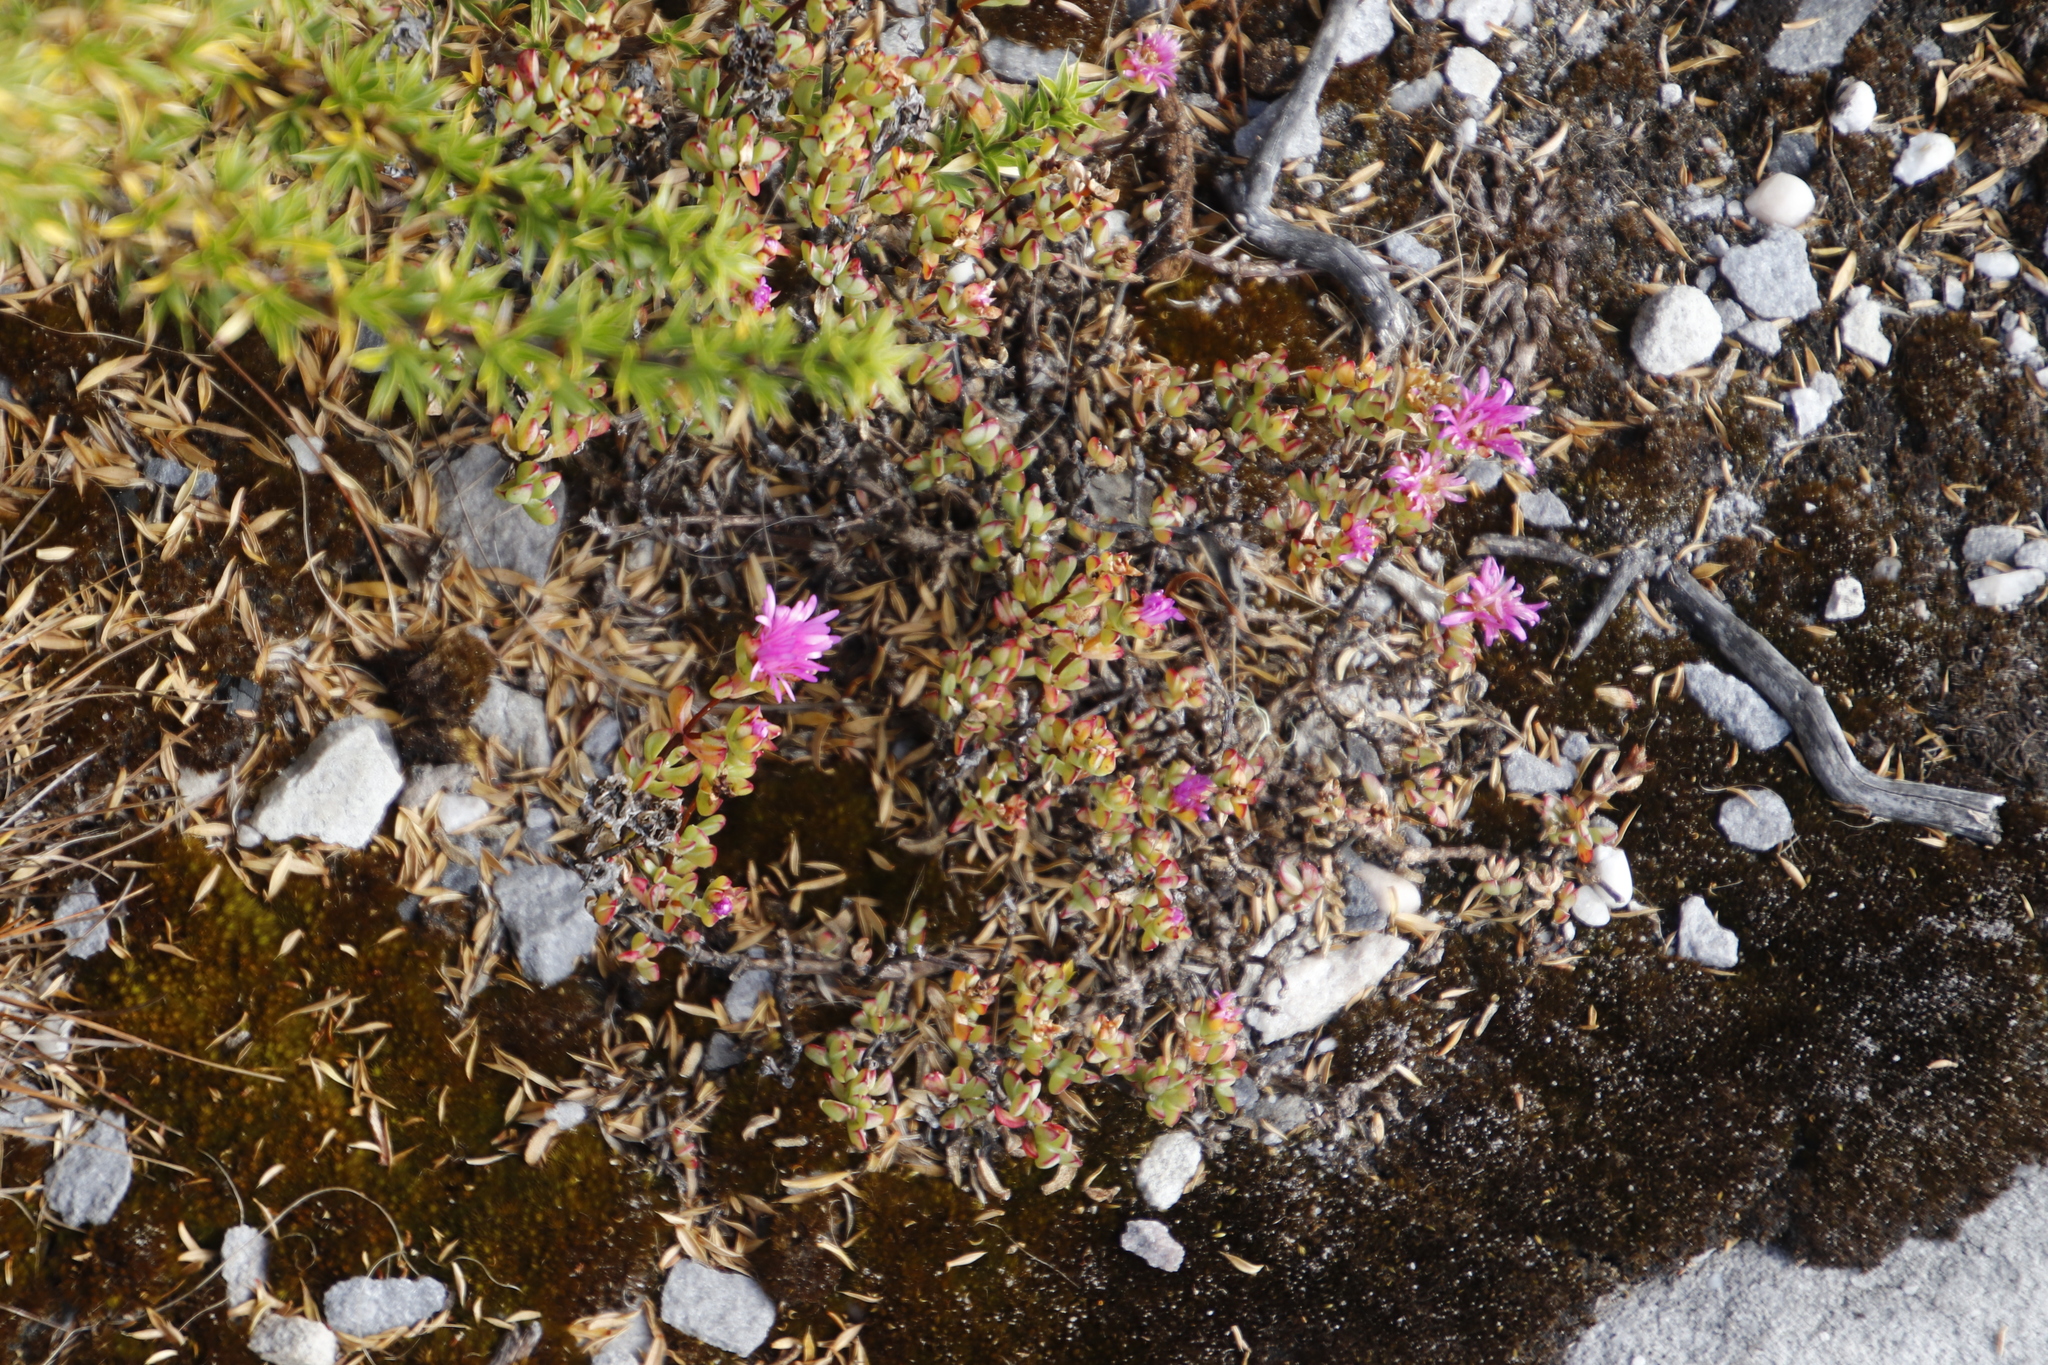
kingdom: Plantae
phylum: Tracheophyta
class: Magnoliopsida
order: Caryophyllales
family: Aizoaceae
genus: Oscularia
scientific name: Oscularia falciformis
